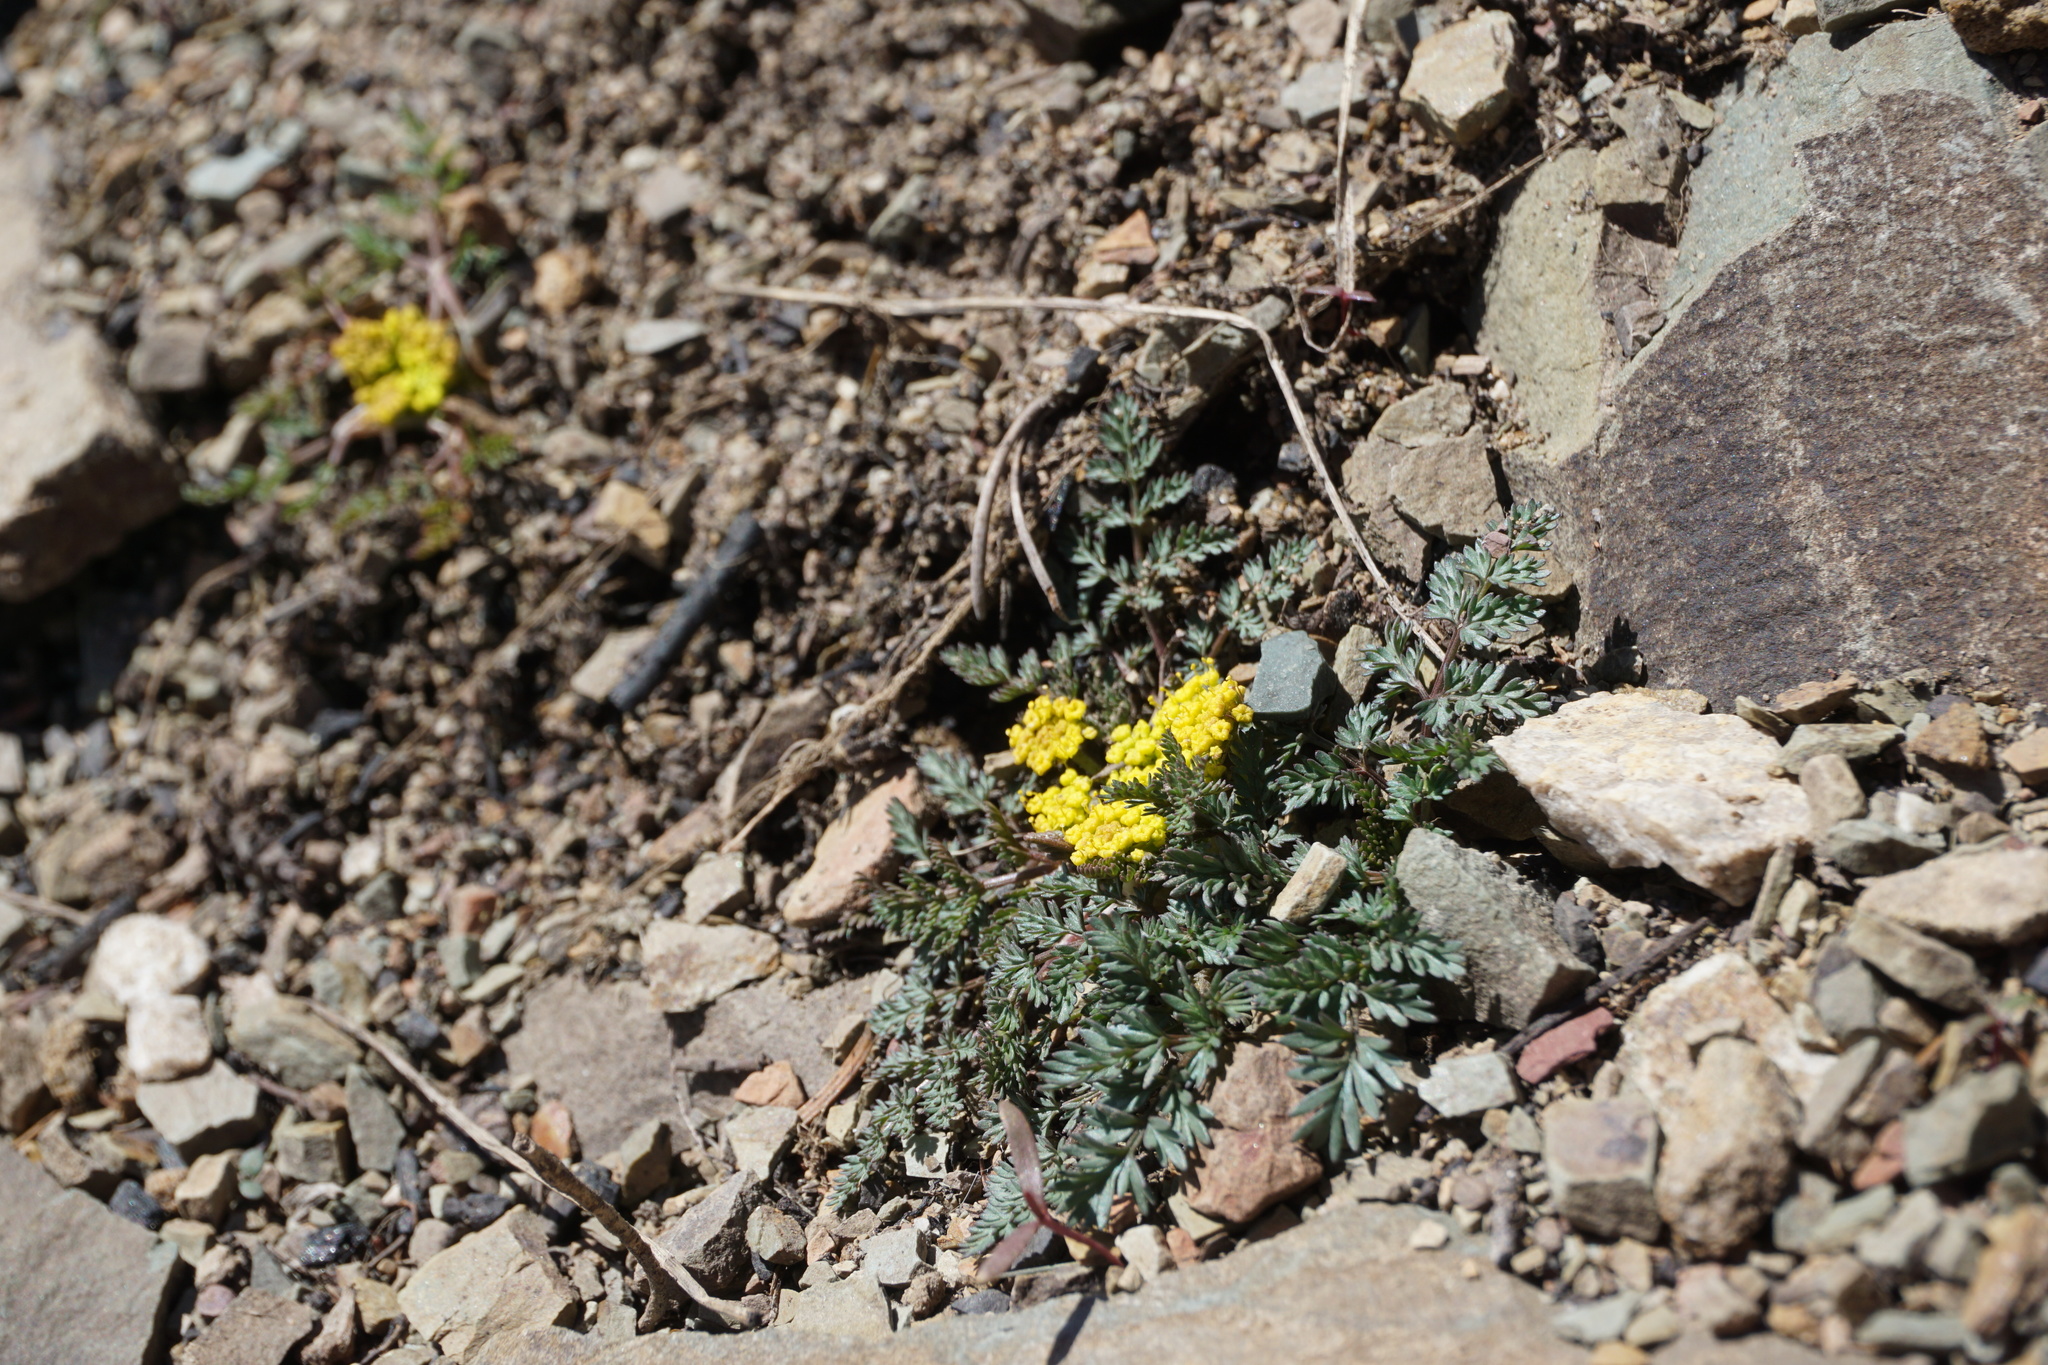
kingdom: Plantae
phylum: Tracheophyta
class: Magnoliopsida
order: Apiales
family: Apiaceae
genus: Lomatium
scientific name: Lomatium sandbergii
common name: Sandberg's biscuitroot
